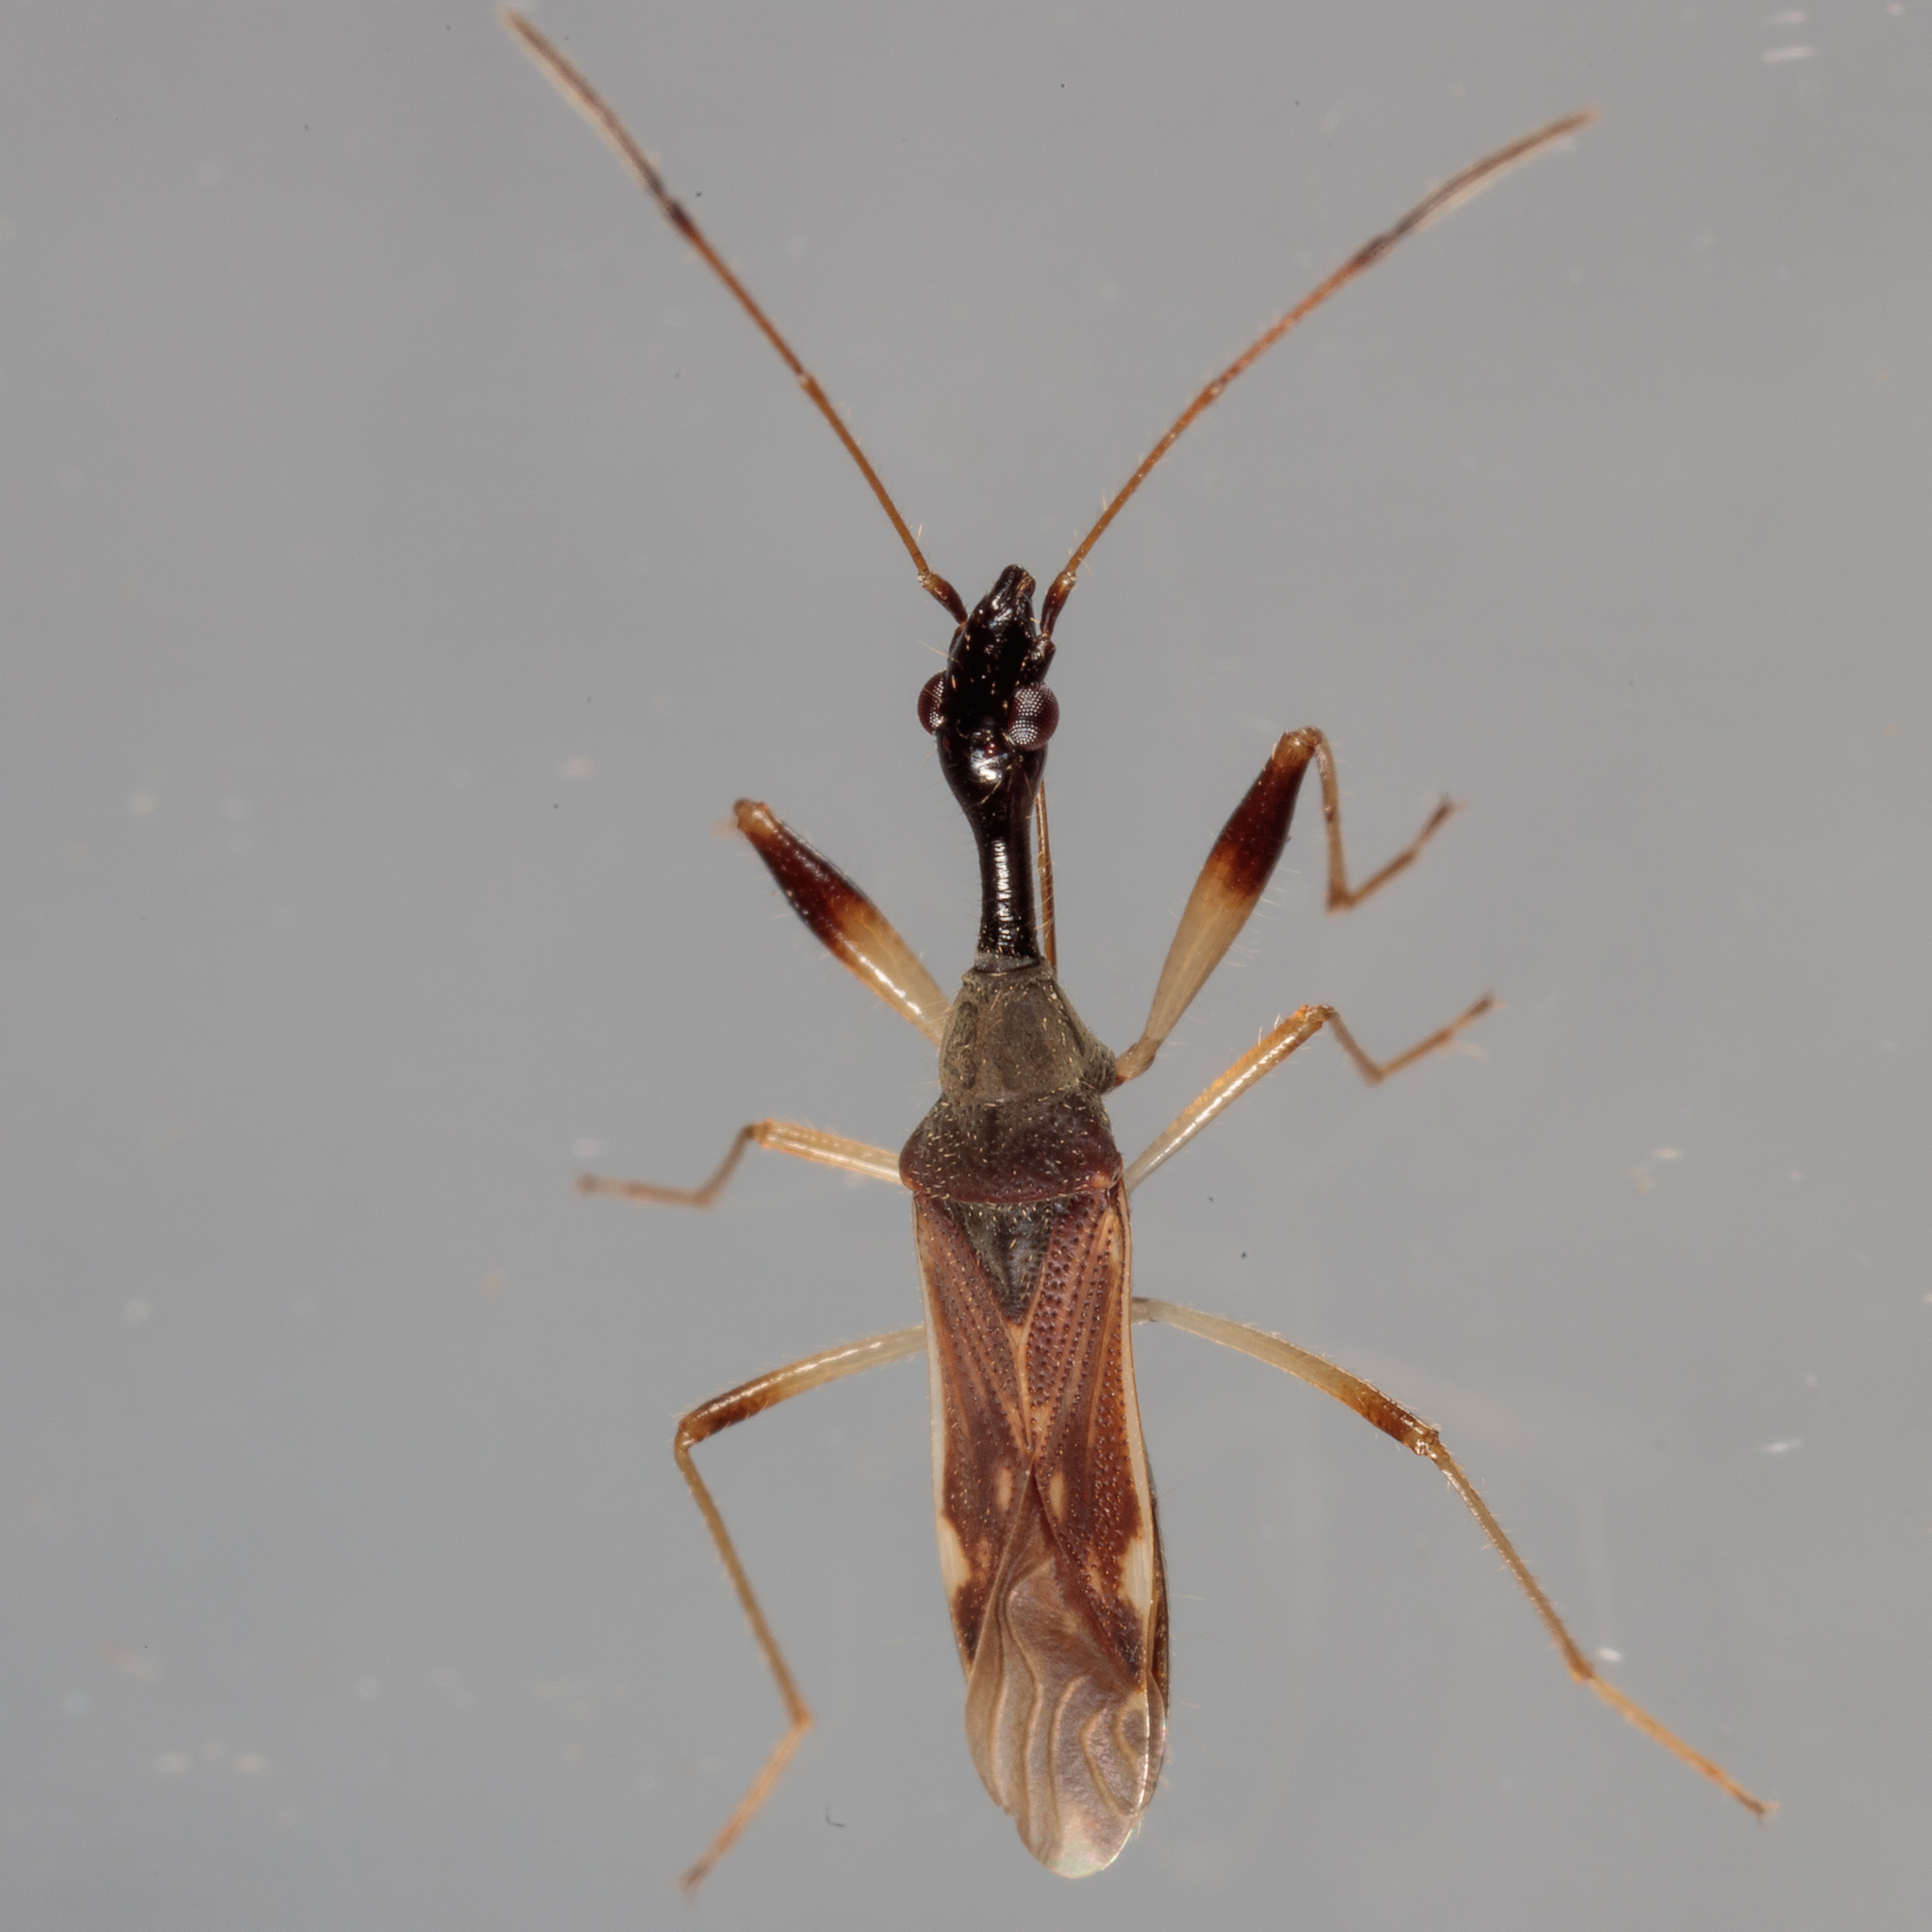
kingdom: Animalia
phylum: Arthropoda
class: Insecta
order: Hemiptera
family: Rhyparochromidae
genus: Myodocha
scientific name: Myodocha serripes
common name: Long-necked seed bug
